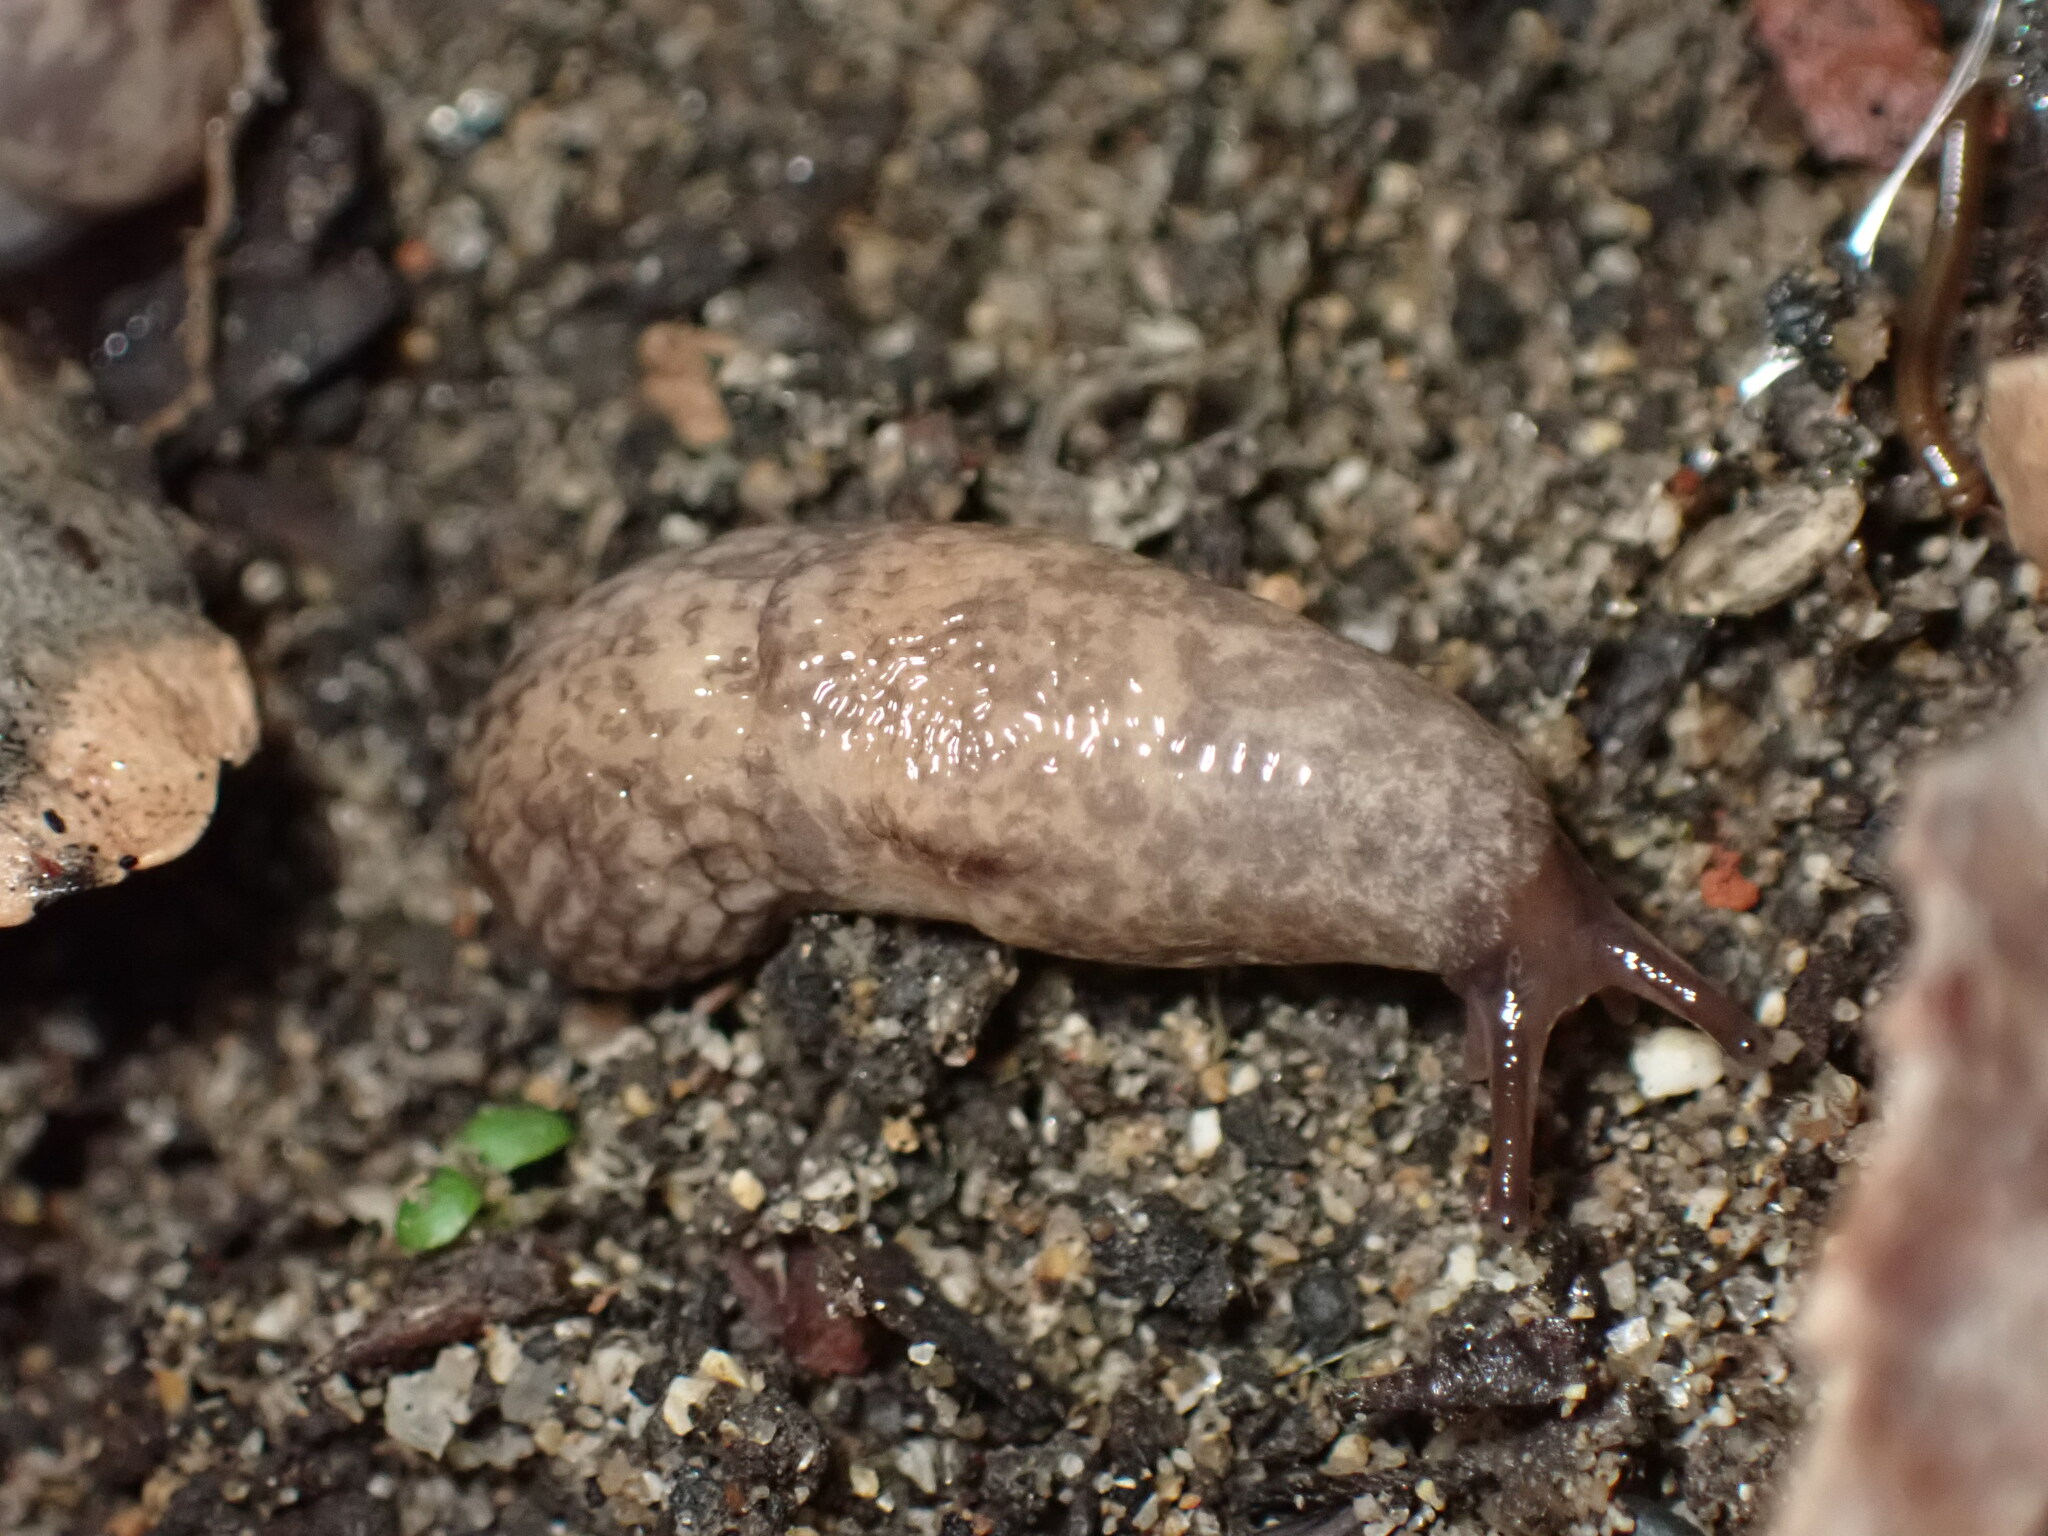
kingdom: Animalia
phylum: Mollusca
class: Gastropoda
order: Stylommatophora
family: Agriolimacidae
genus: Deroceras
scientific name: Deroceras reticulatum
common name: Gray field slug
